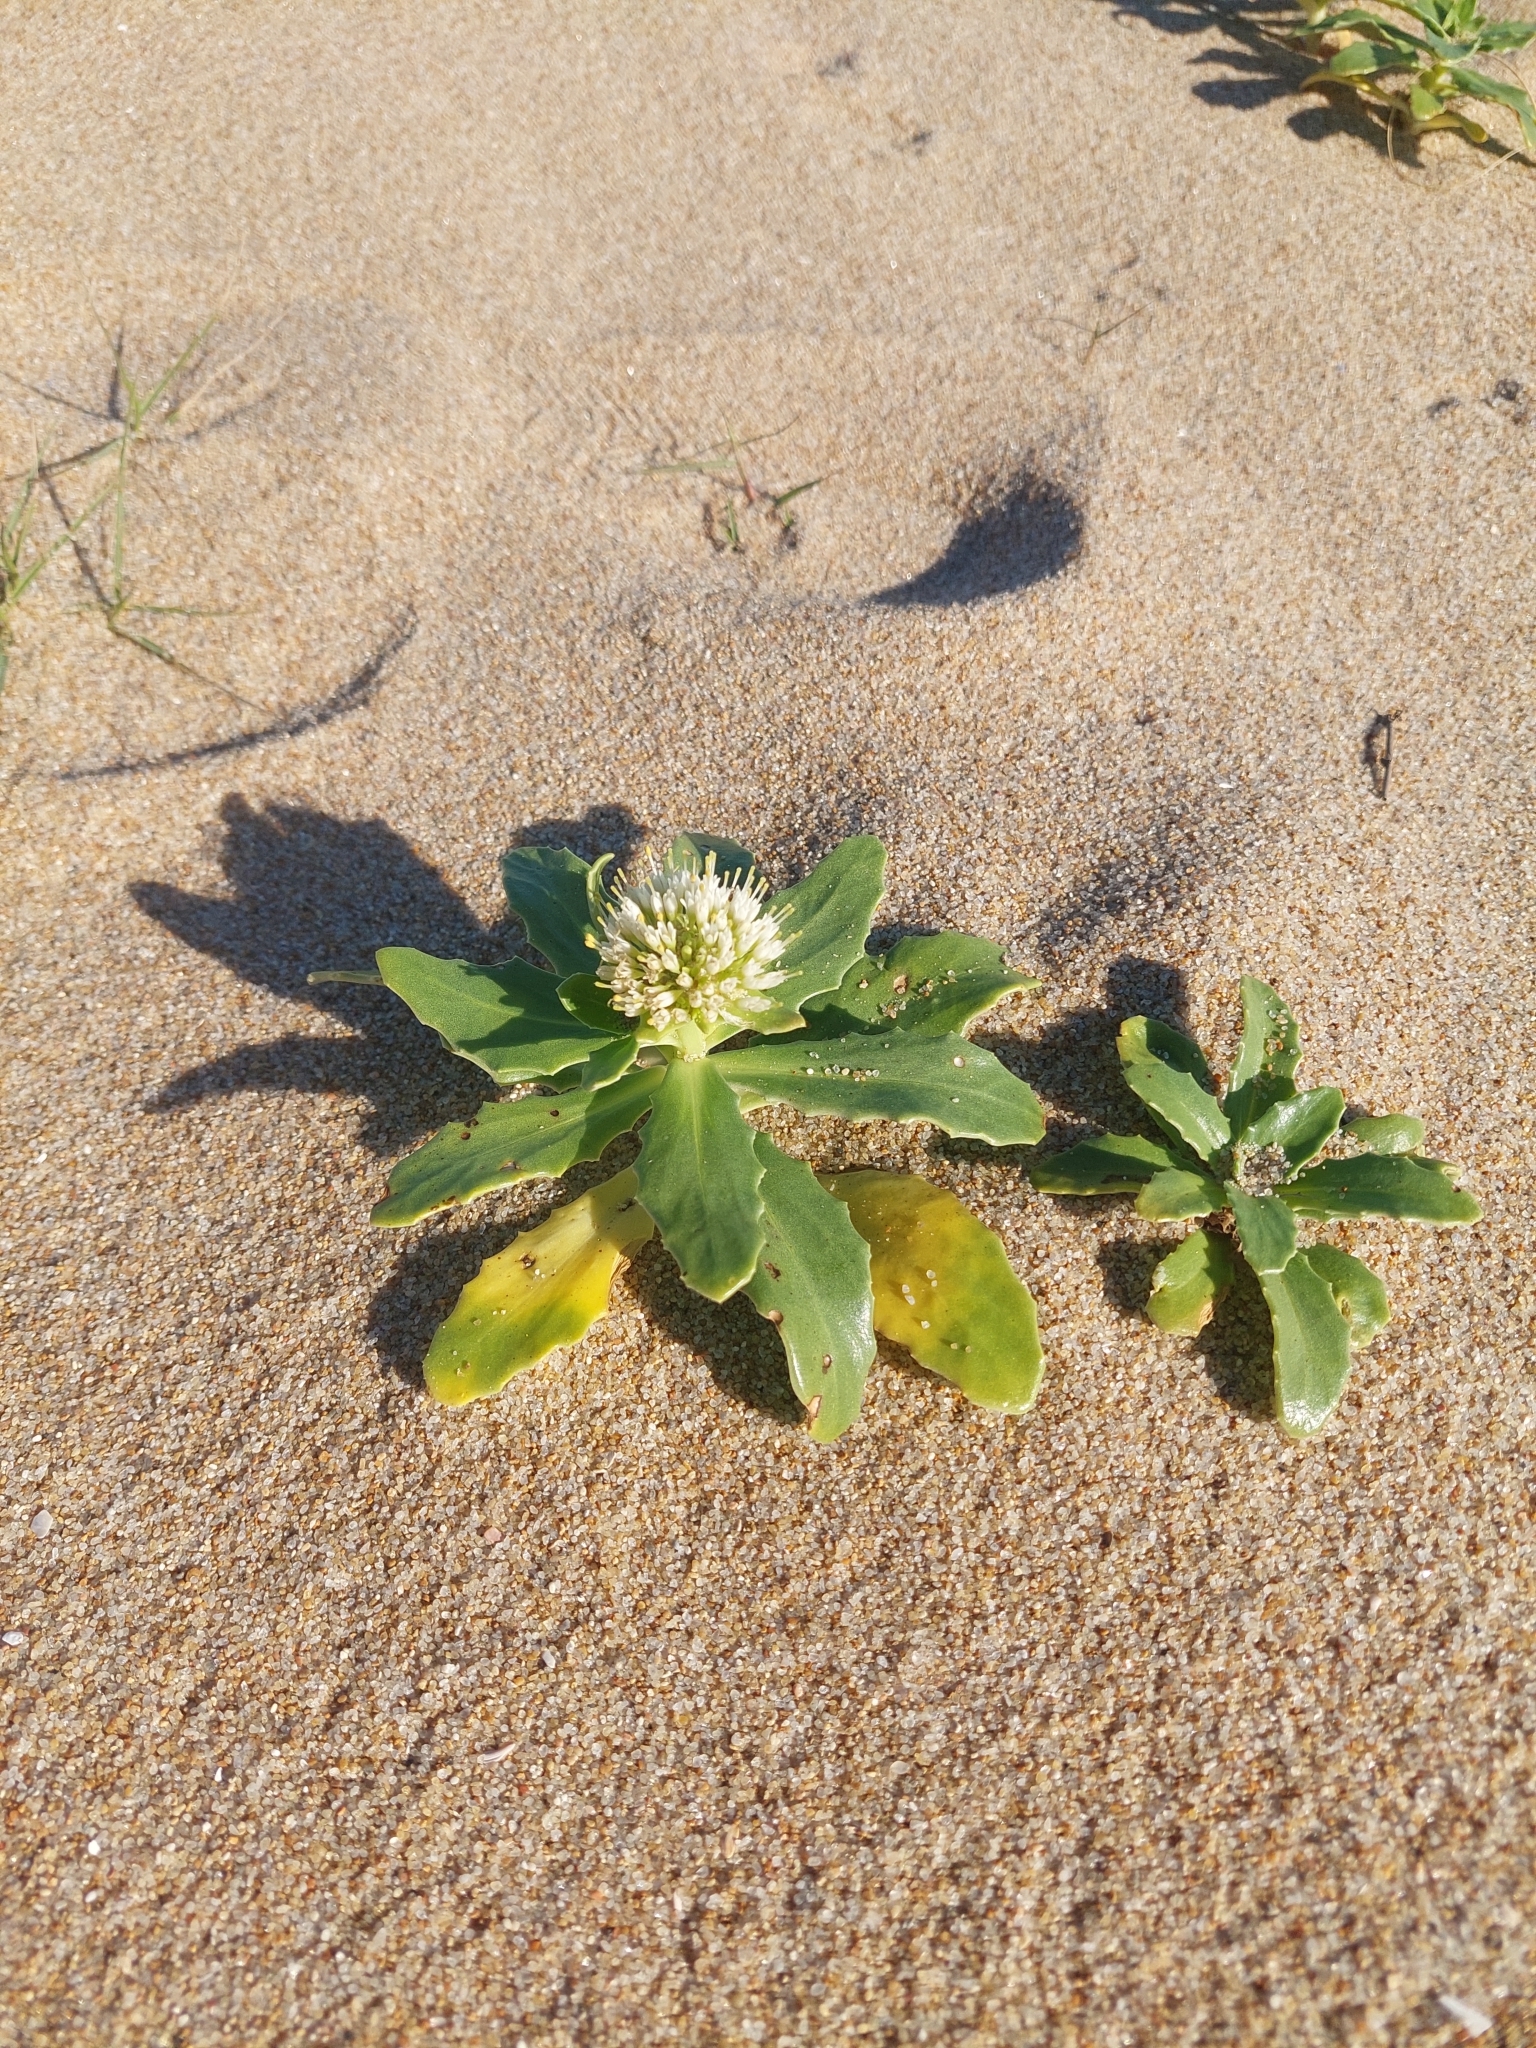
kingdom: Plantae
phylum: Tracheophyta
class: Magnoliopsida
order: Asterales
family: Calyceraceae
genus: Calycera
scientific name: Calycera crassifolia
